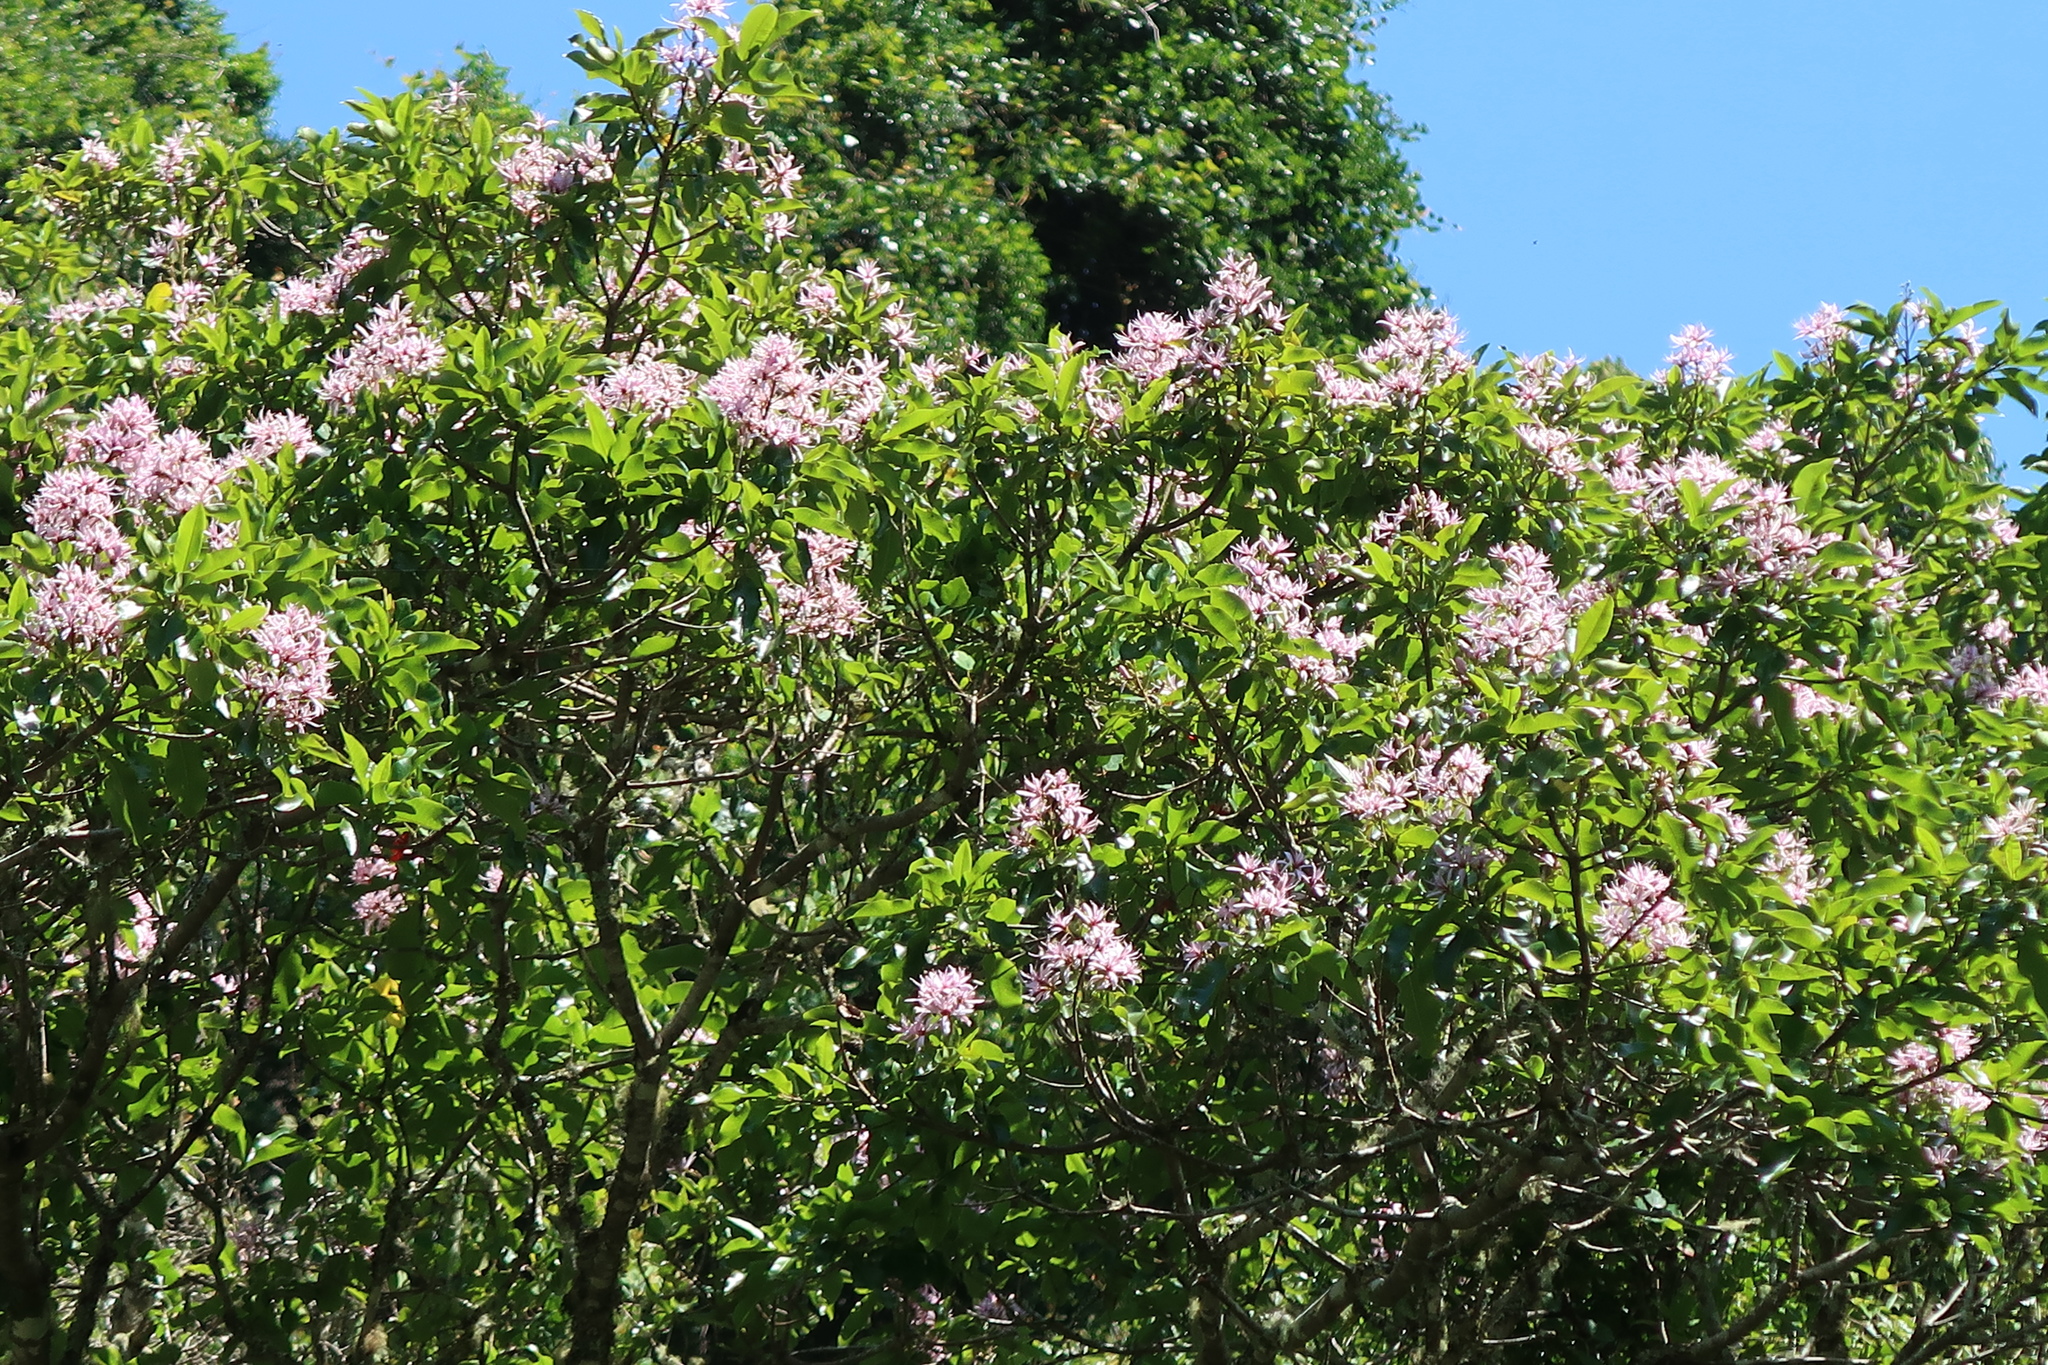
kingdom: Plantae
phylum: Tracheophyta
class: Magnoliopsida
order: Sapindales
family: Rutaceae
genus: Calodendrum
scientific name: Calodendrum capense
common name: Cape chestnut
